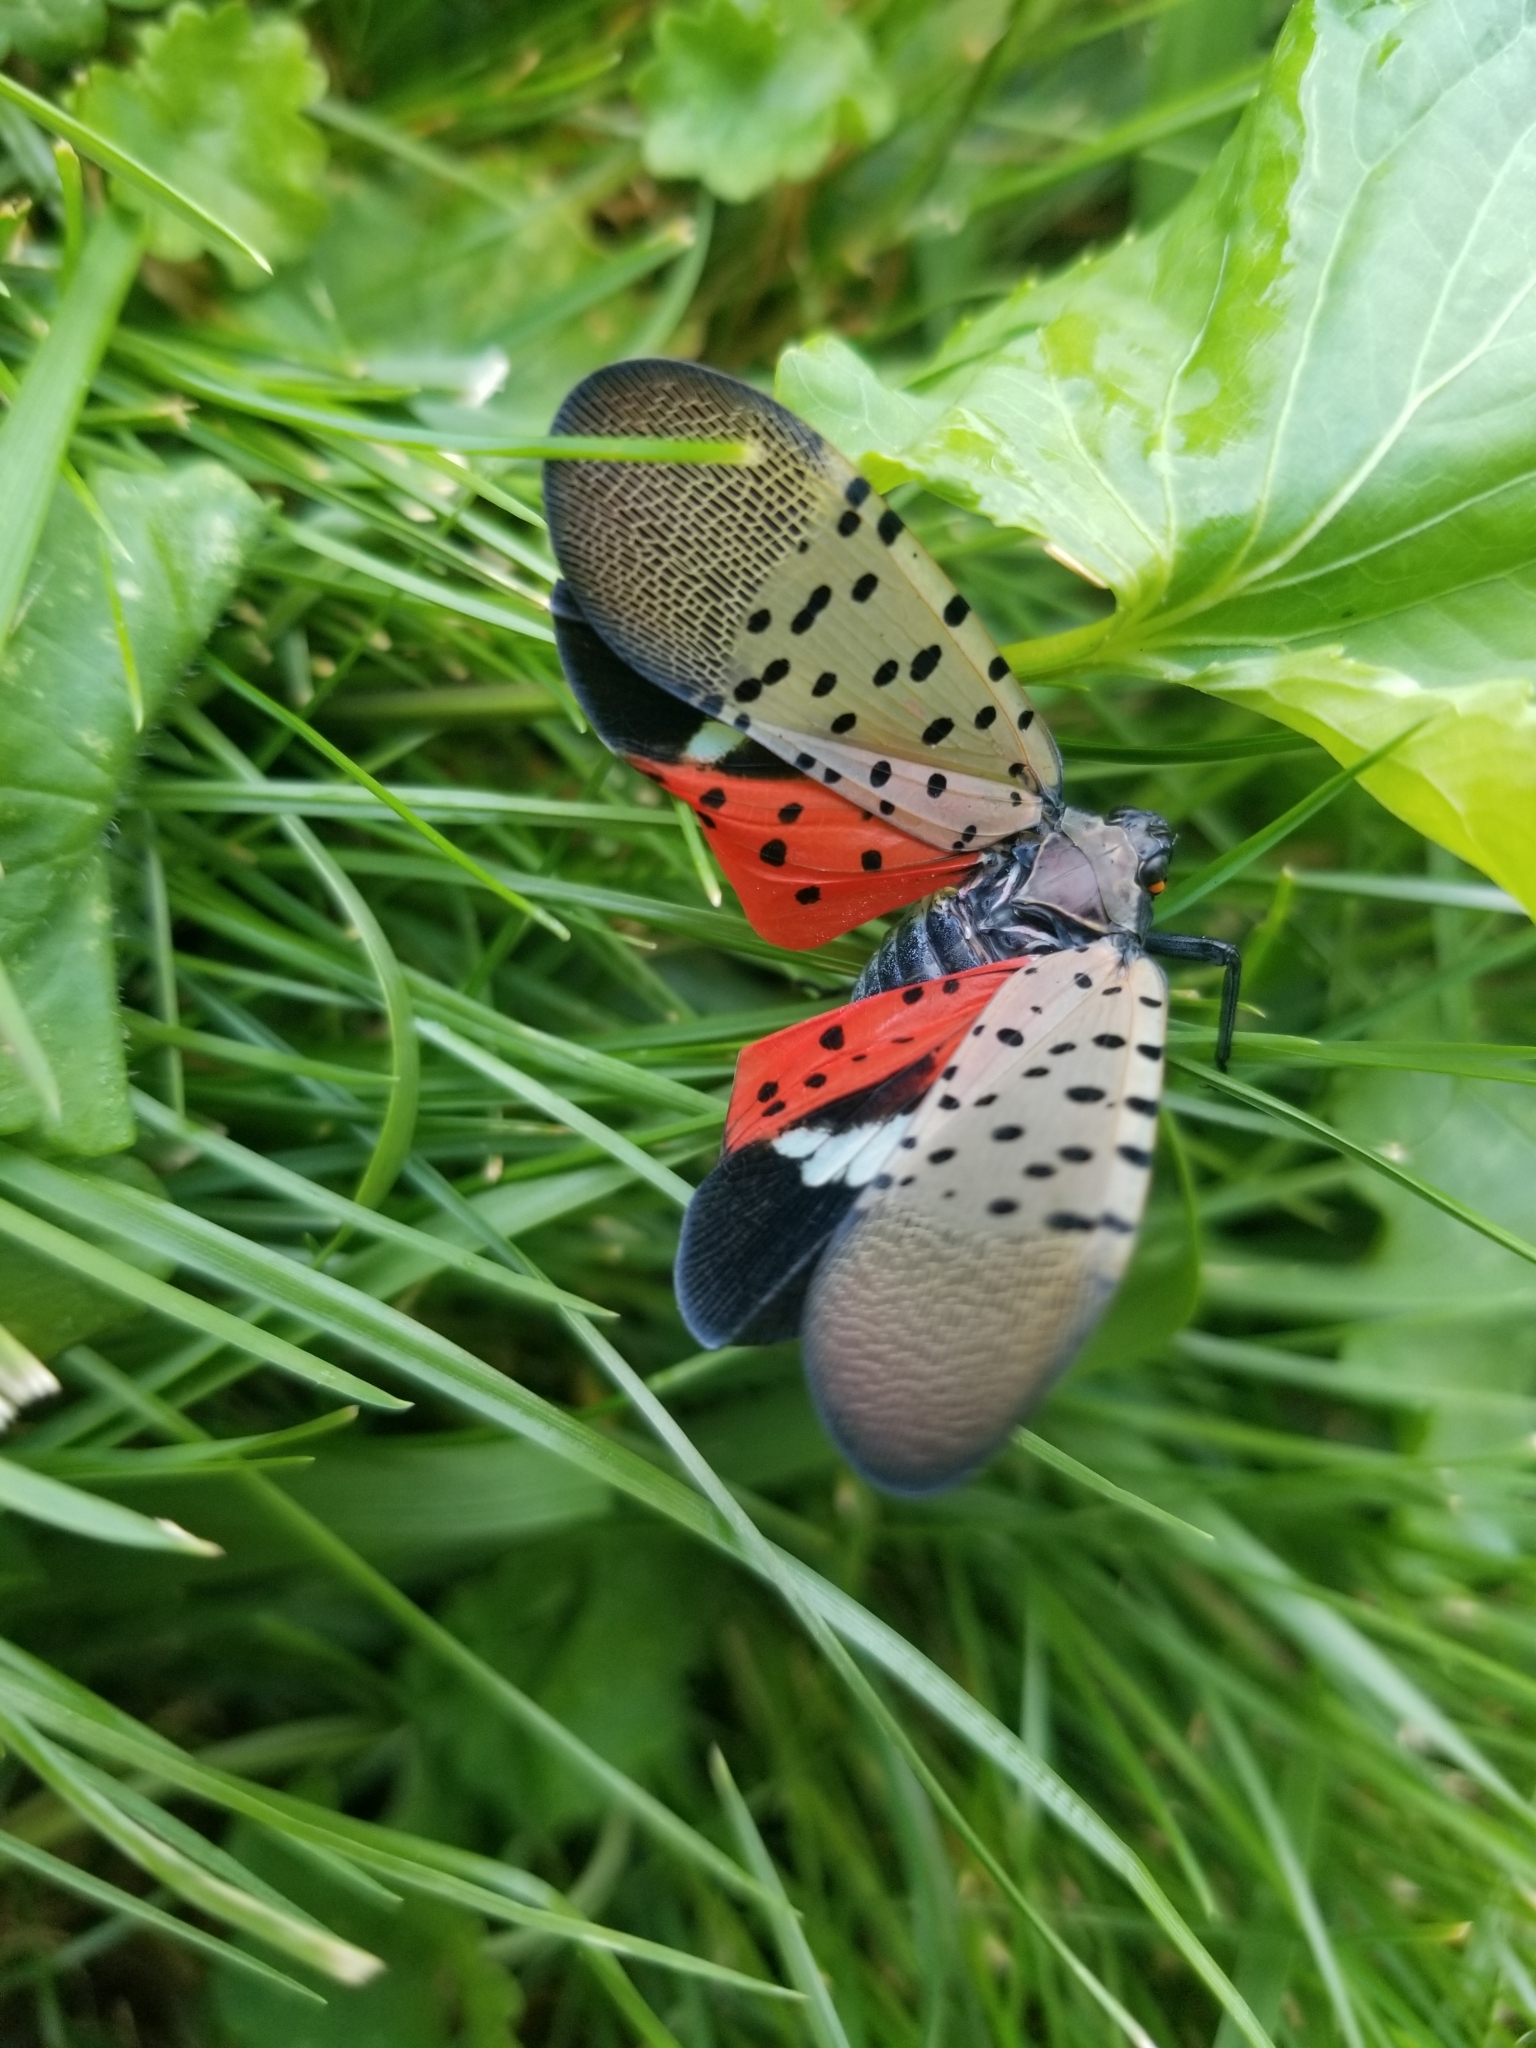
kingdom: Animalia
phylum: Arthropoda
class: Insecta
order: Hemiptera
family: Fulgoridae
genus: Lycorma
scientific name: Lycorma delicatula
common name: Spotted lanternfly
